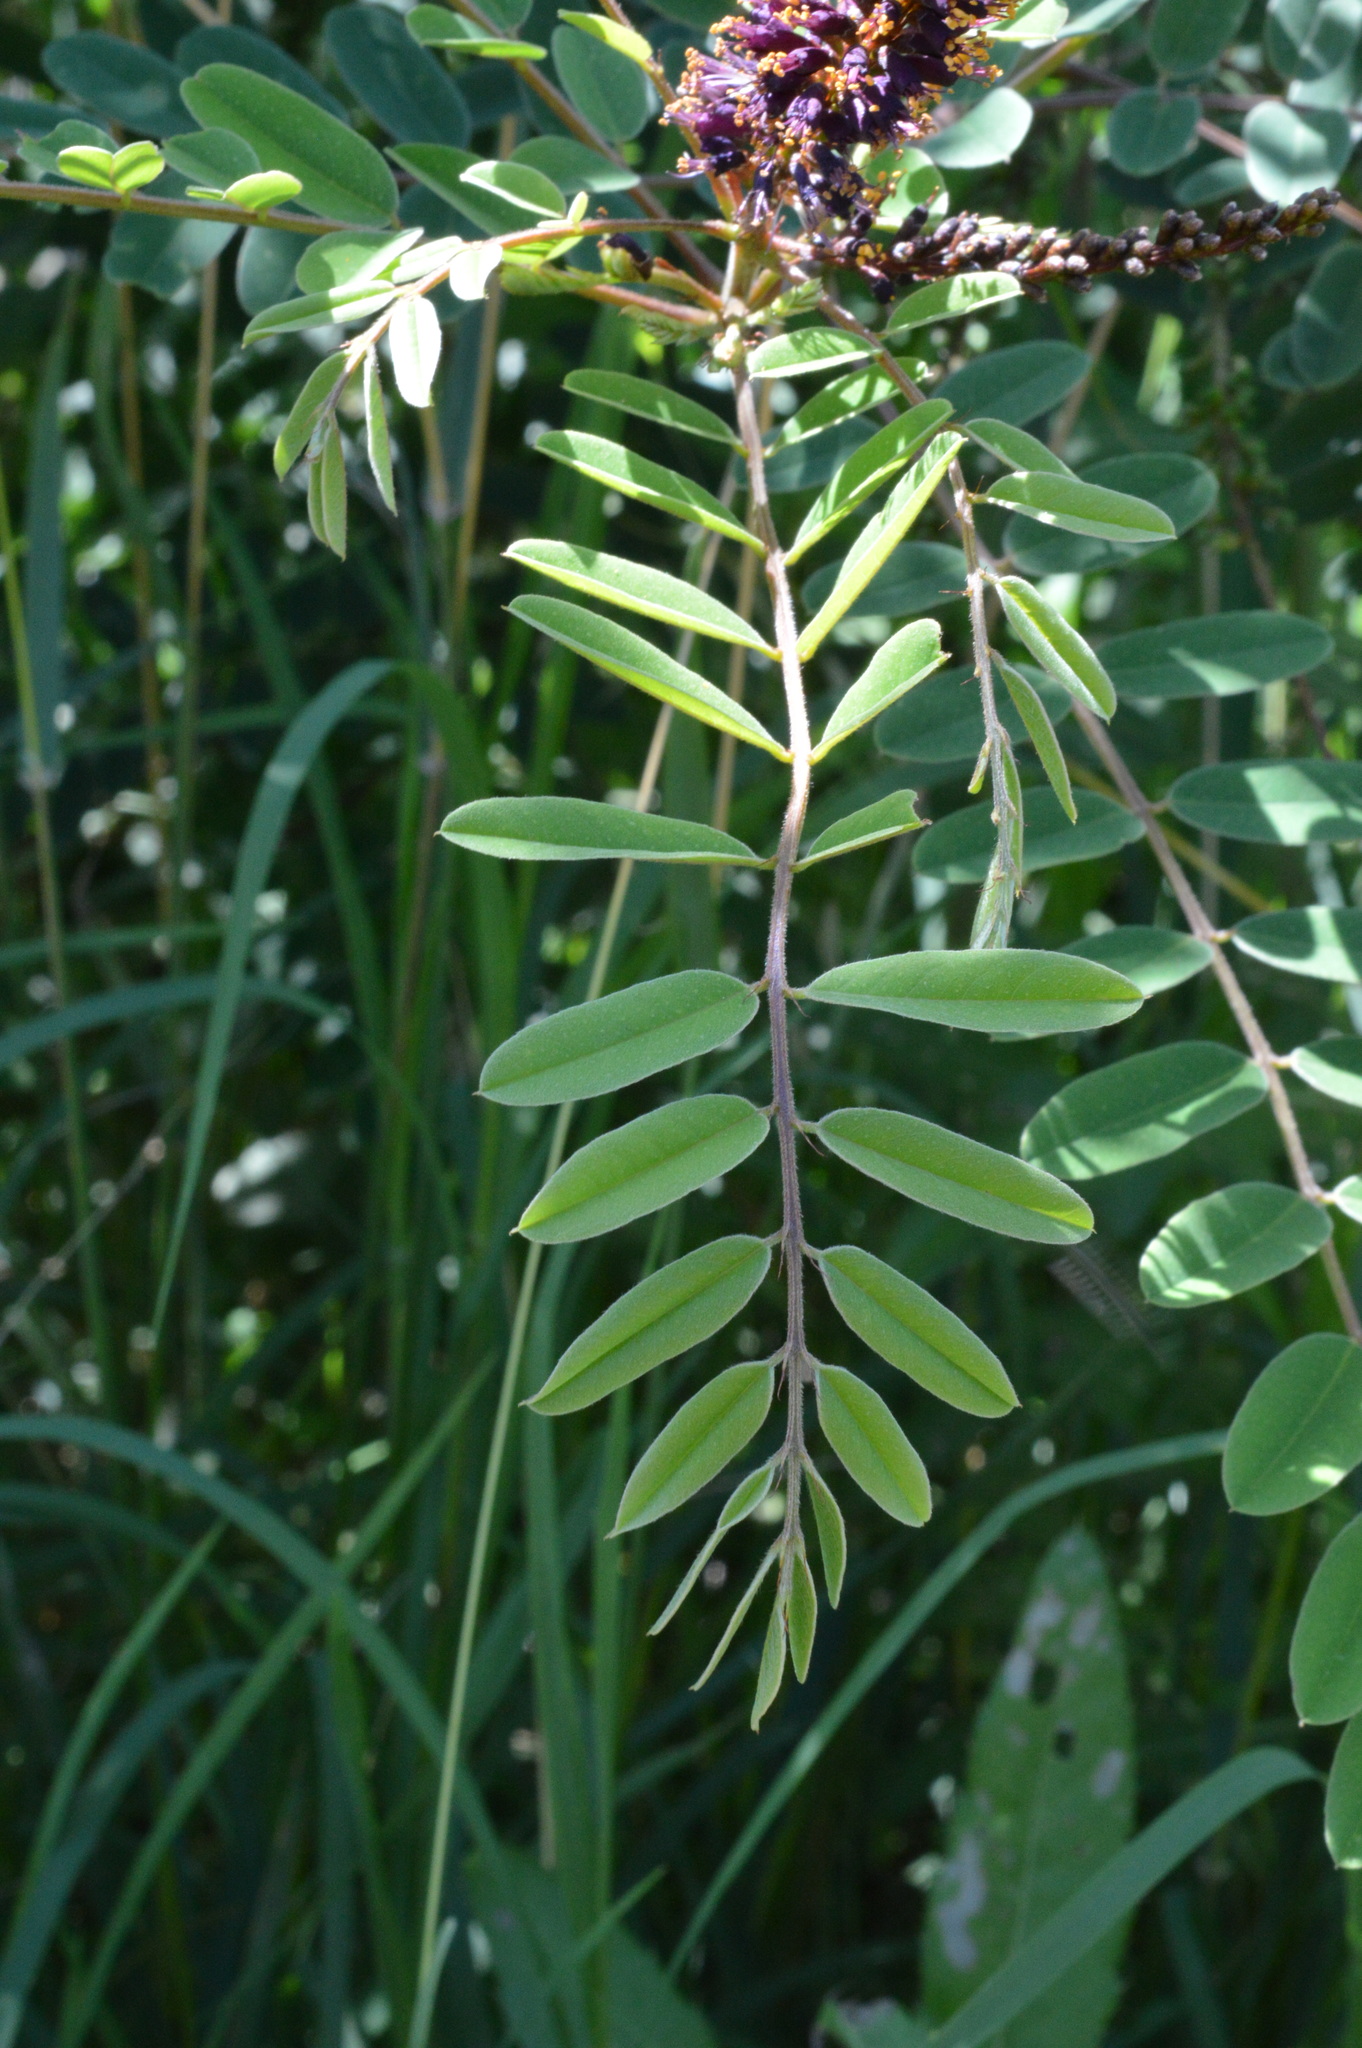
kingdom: Plantae
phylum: Tracheophyta
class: Magnoliopsida
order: Fabales
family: Fabaceae
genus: Amorpha
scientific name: Amorpha fruticosa
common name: False indigo
